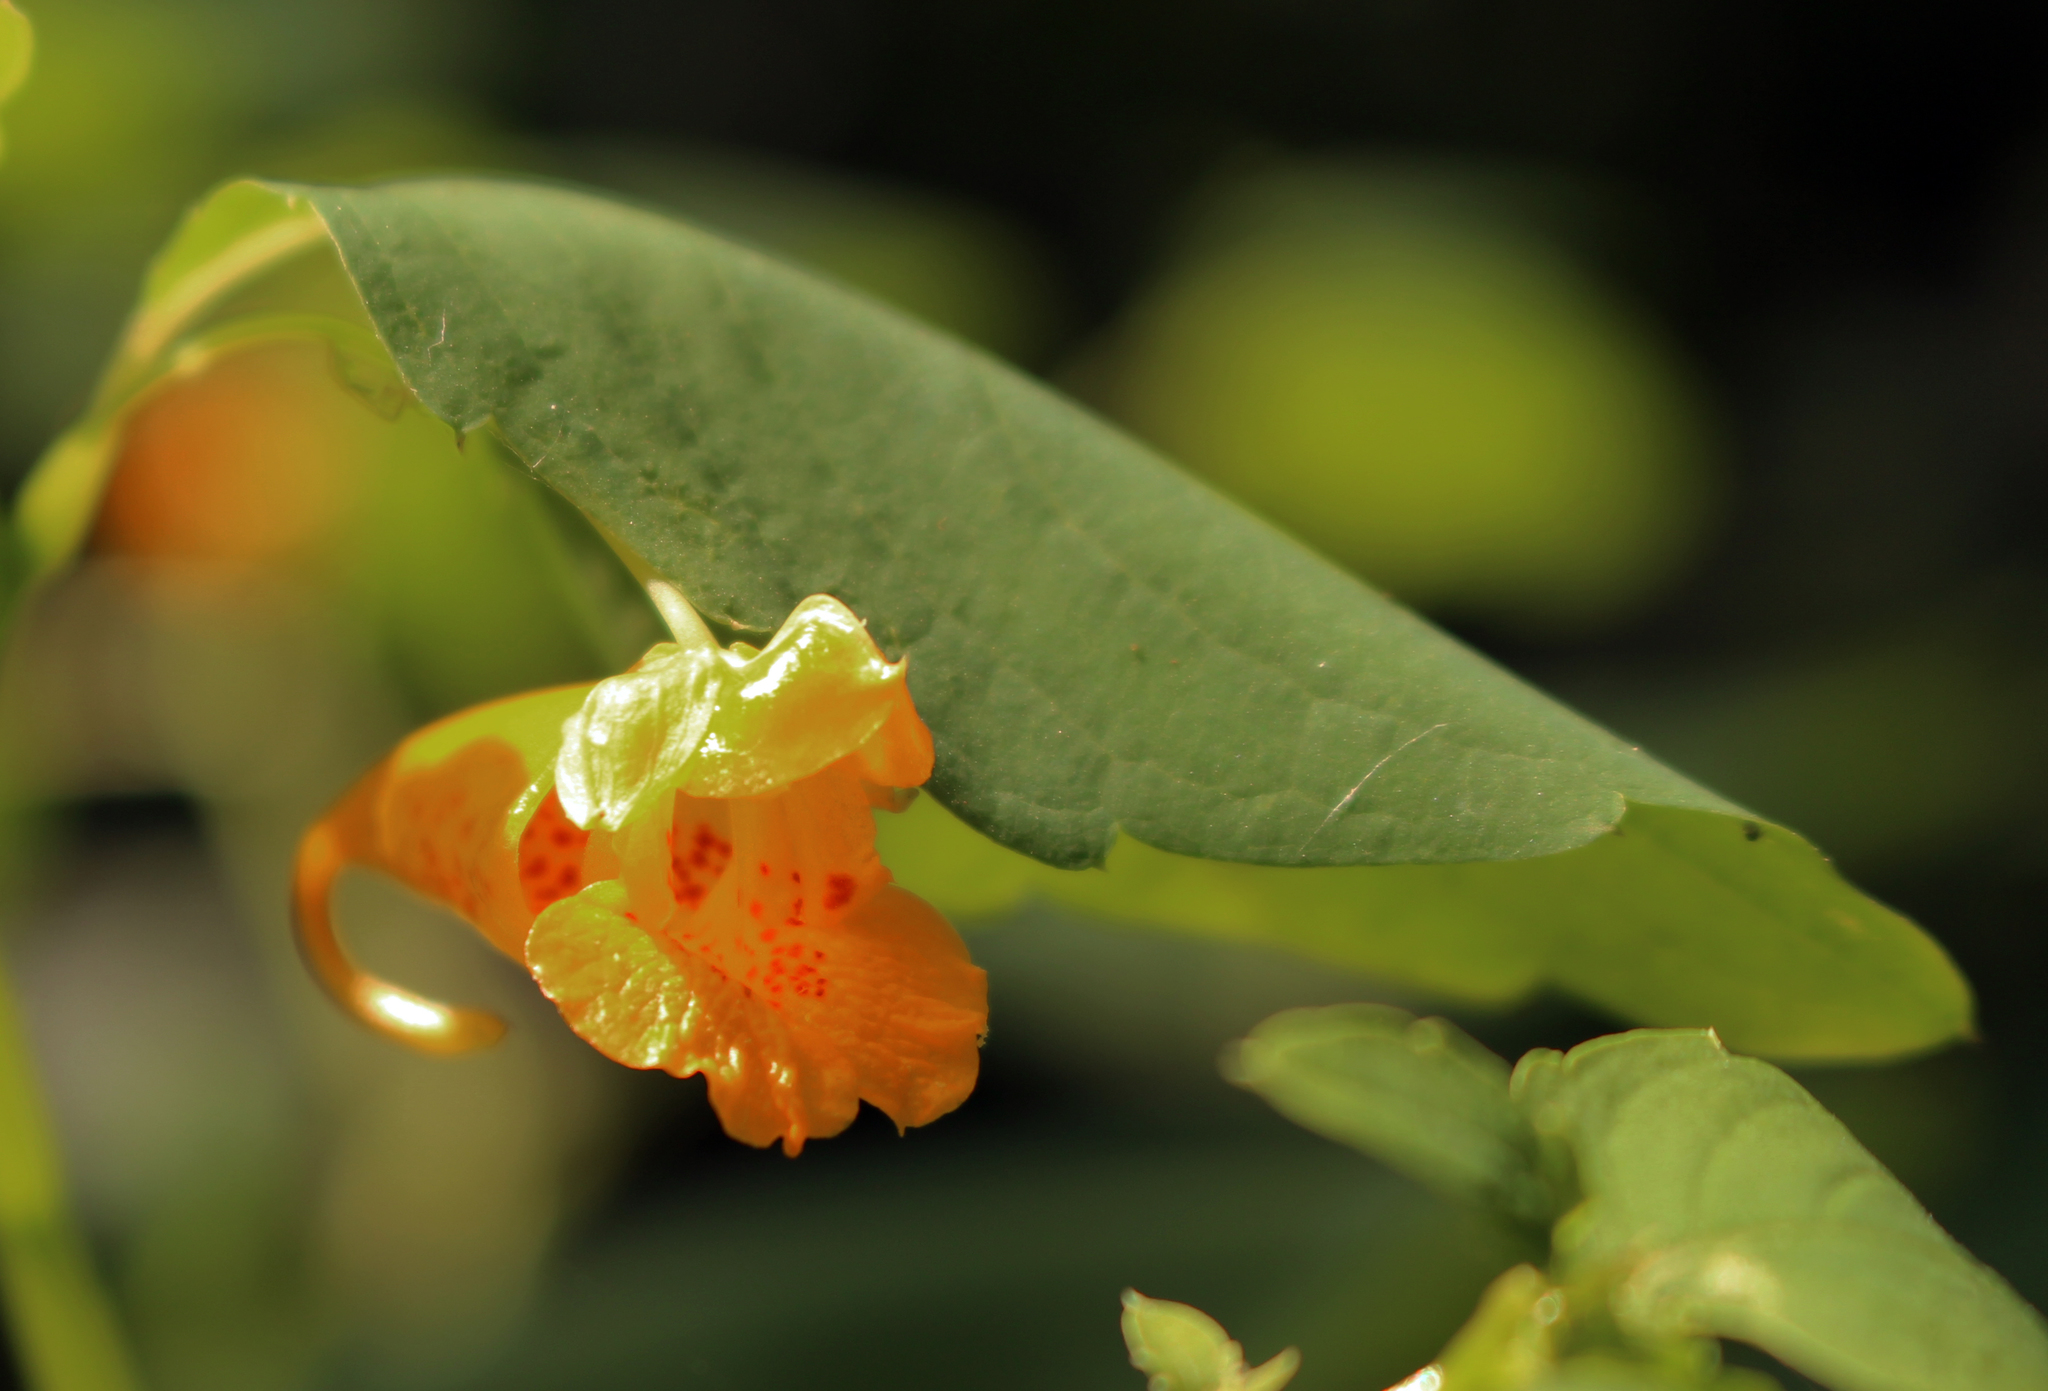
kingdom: Plantae
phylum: Tracheophyta
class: Magnoliopsida
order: Ericales
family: Balsaminaceae
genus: Impatiens
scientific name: Impatiens capensis
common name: Orange balsam
